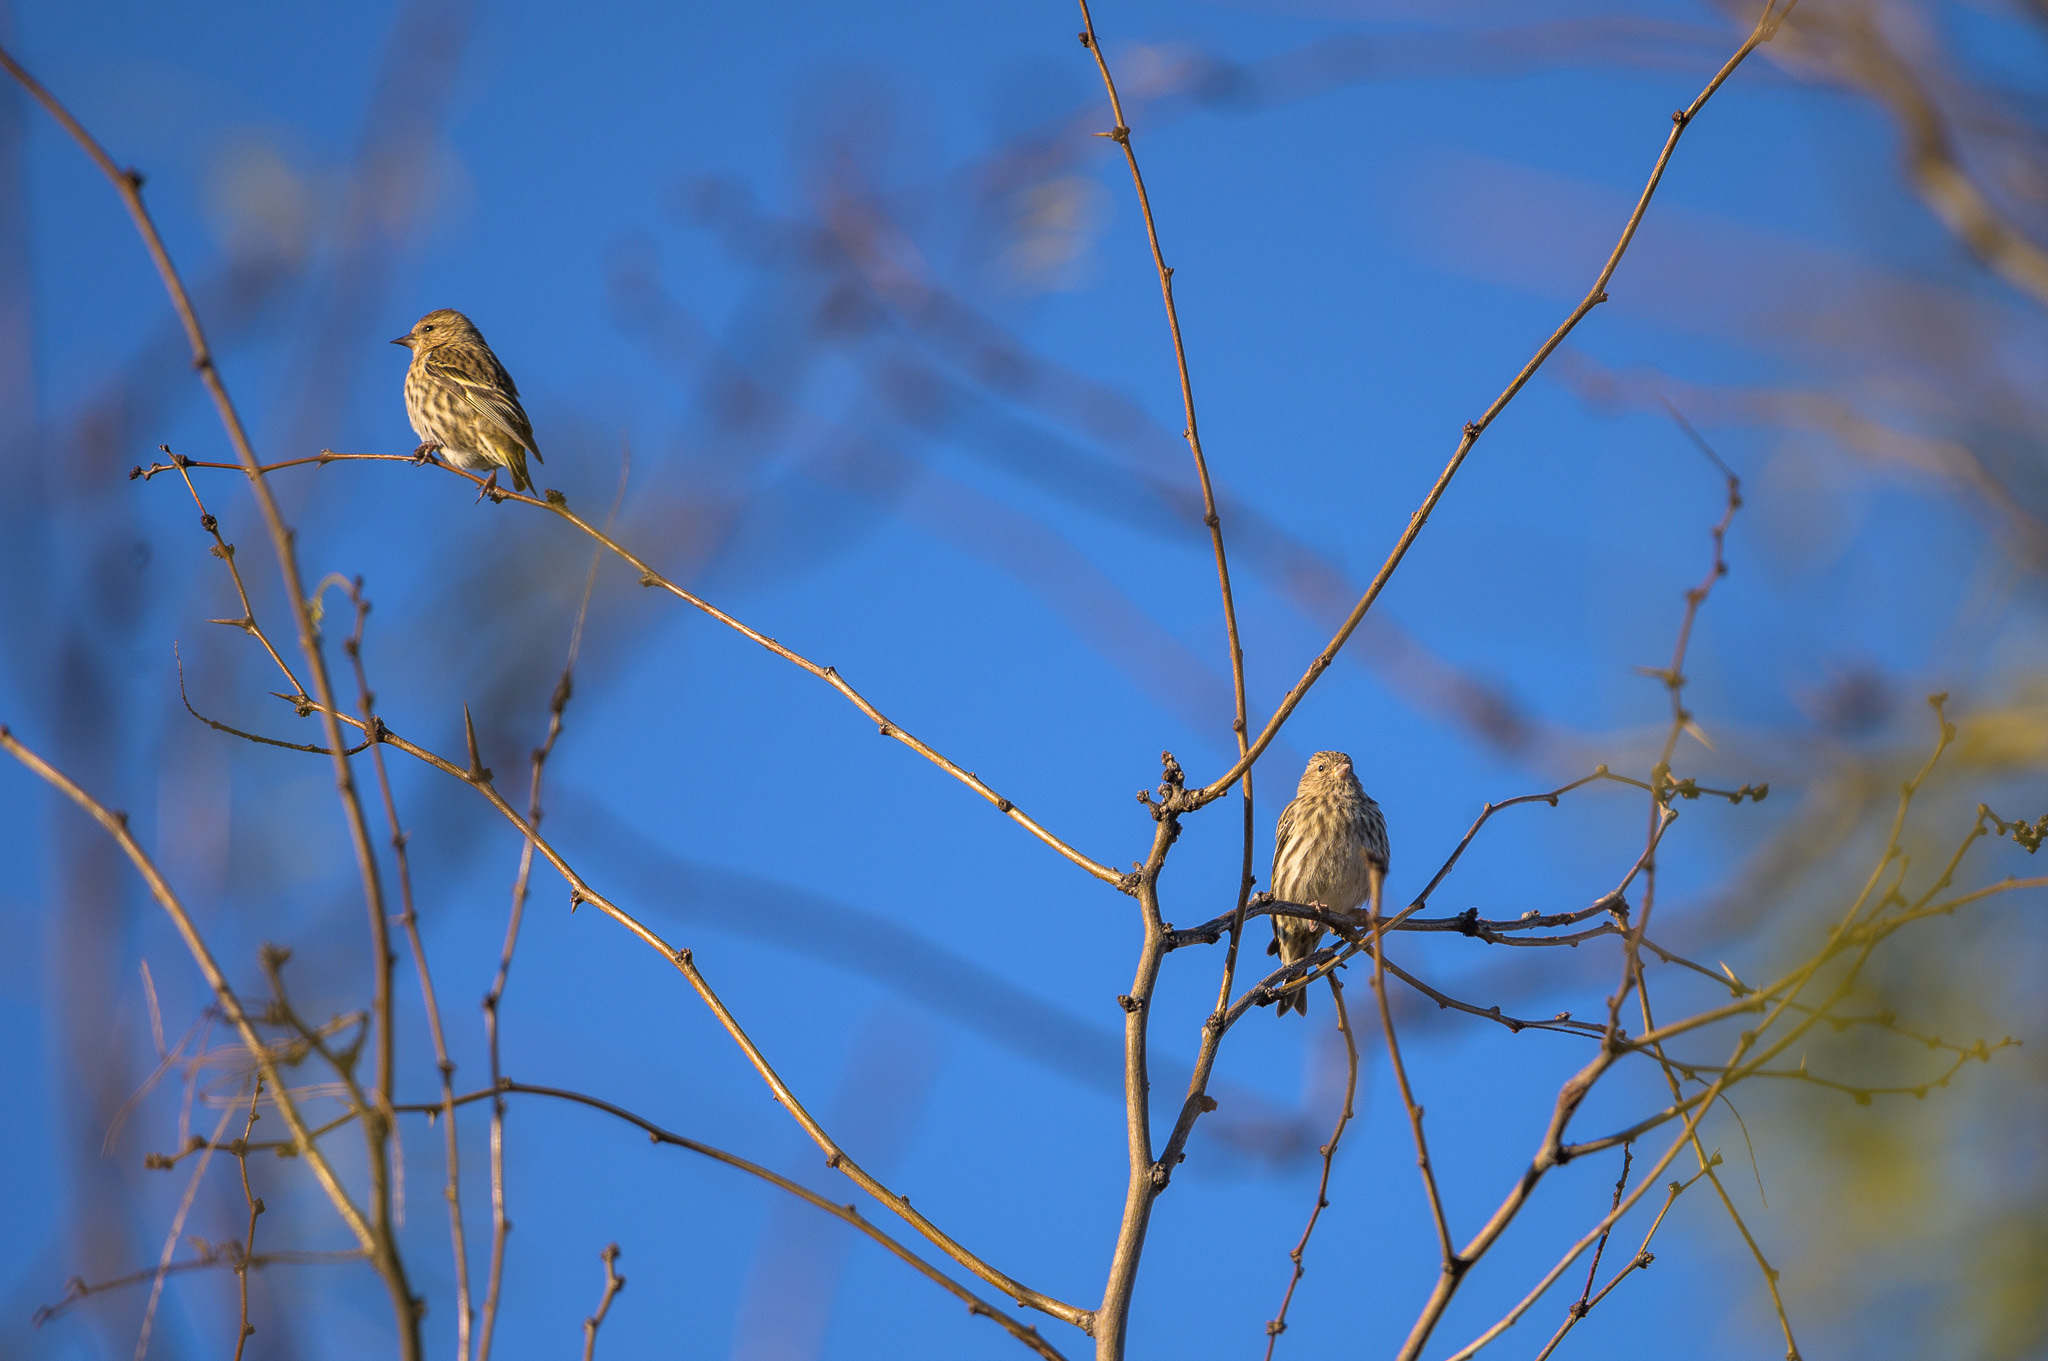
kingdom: Animalia
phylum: Chordata
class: Aves
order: Passeriformes
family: Fringillidae
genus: Spinus
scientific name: Spinus pinus
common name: Pine siskin
